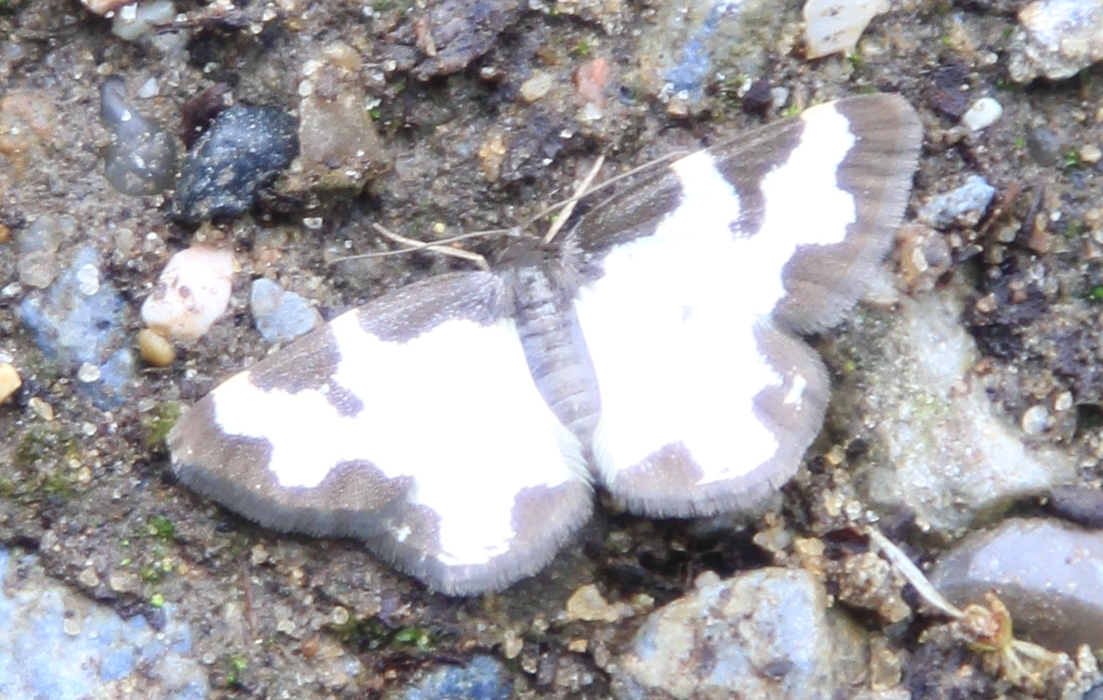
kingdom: Animalia
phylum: Arthropoda
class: Insecta
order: Lepidoptera
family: Geometridae
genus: Lomaspilis
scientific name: Lomaspilis marginata
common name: Clouded border
